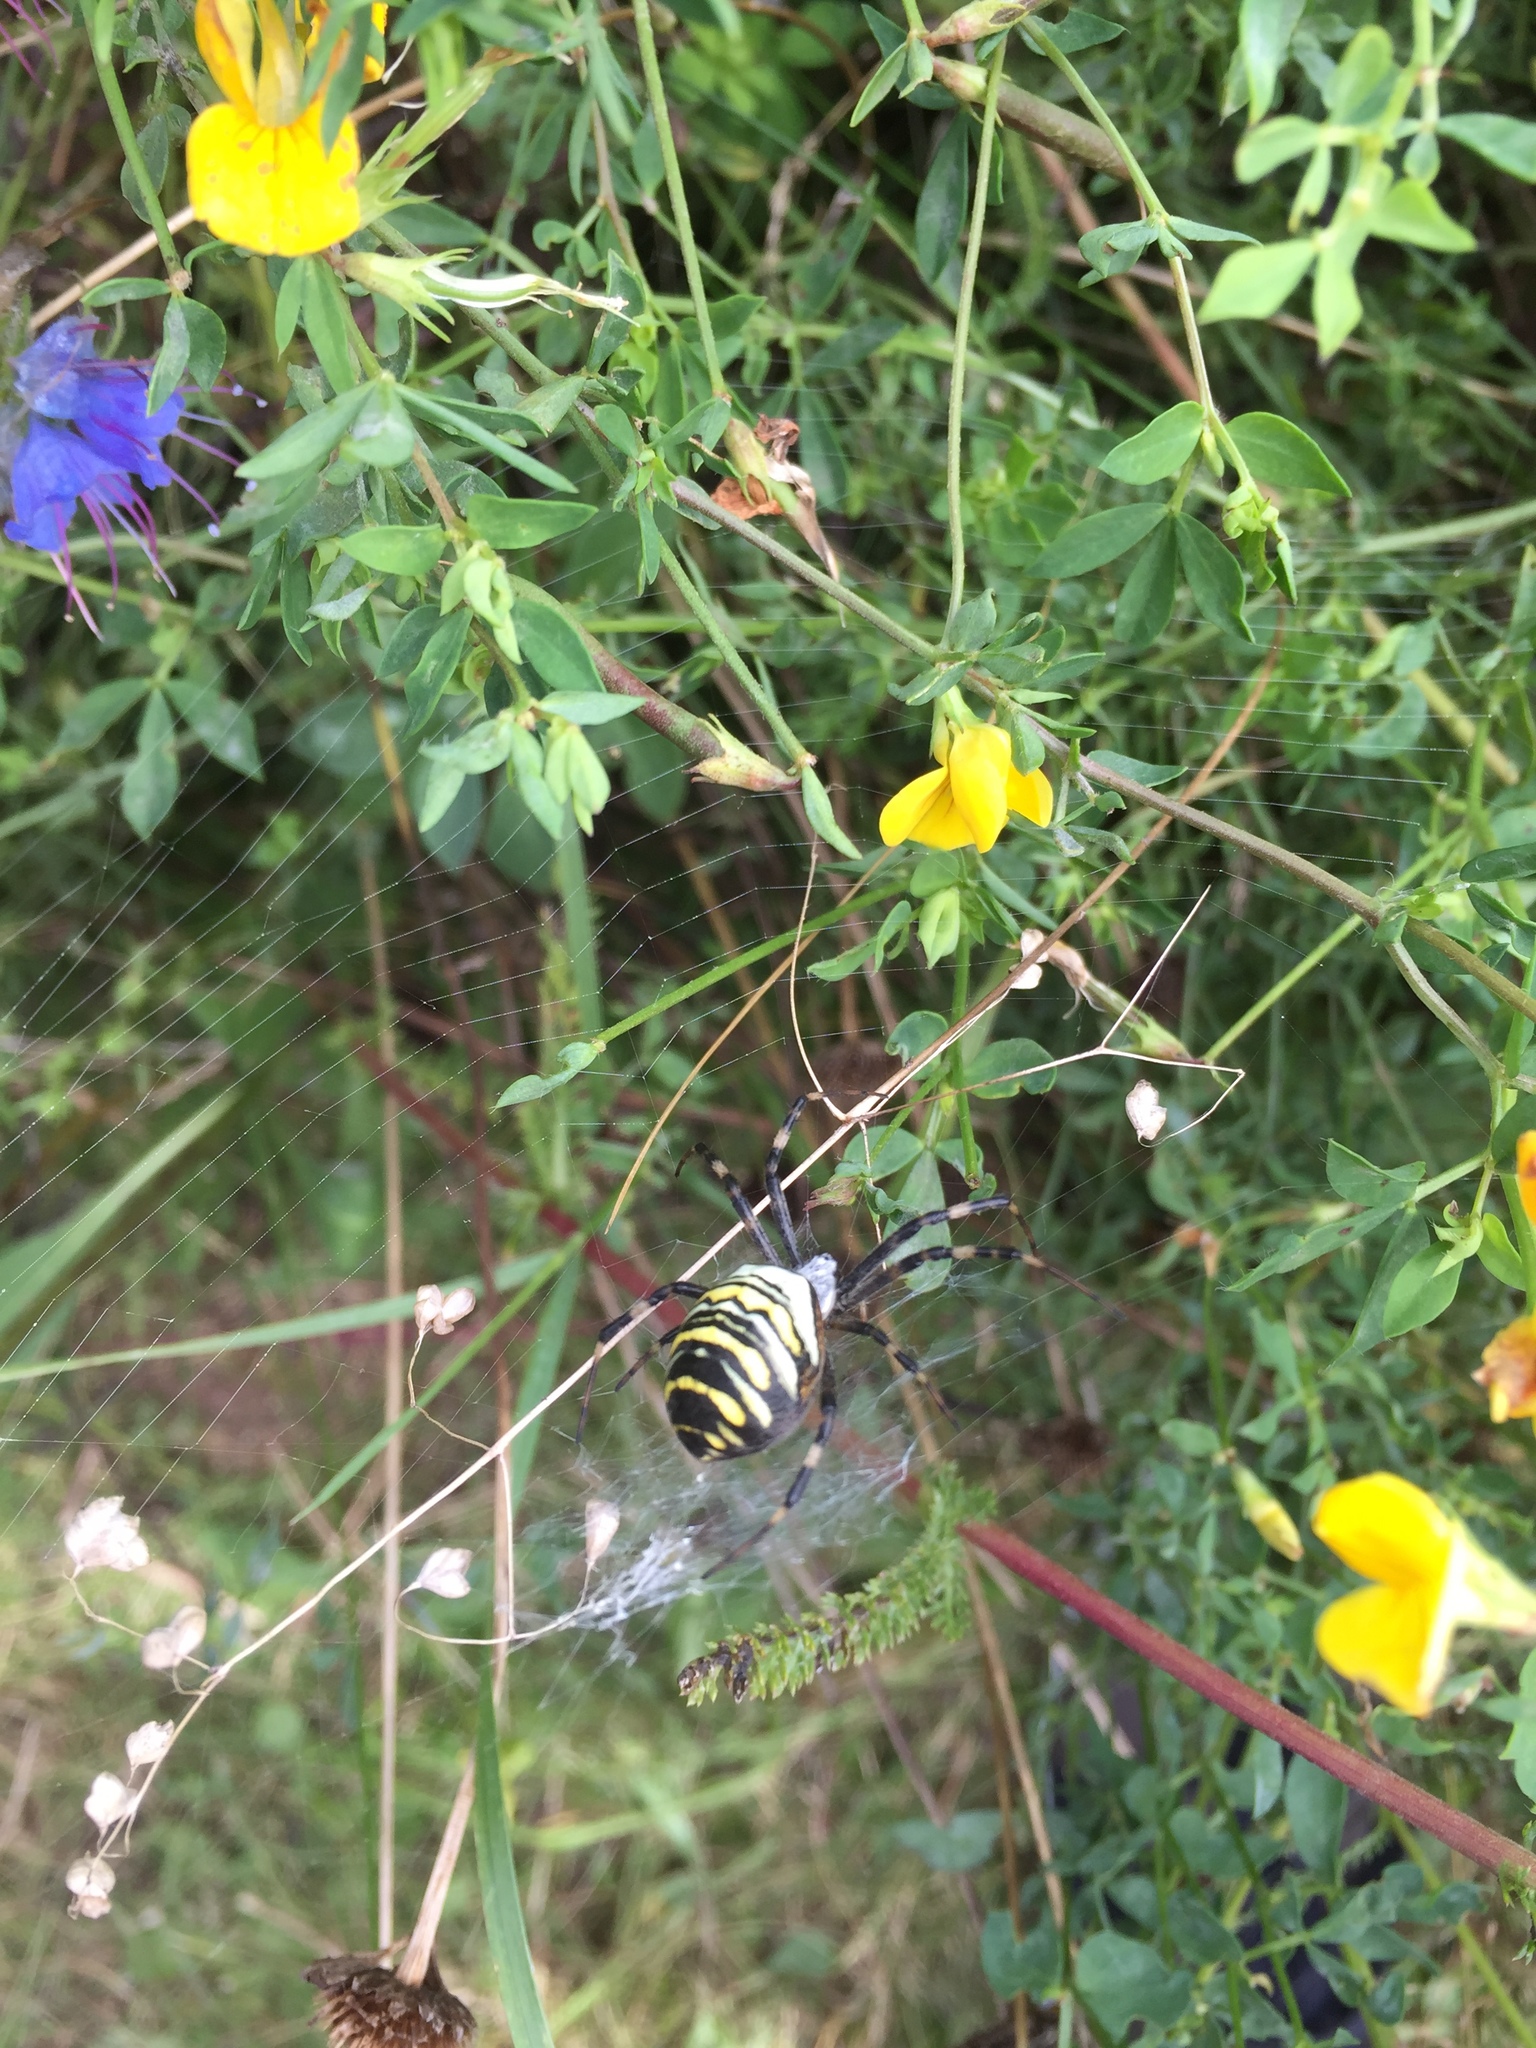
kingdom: Animalia
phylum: Arthropoda
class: Arachnida
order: Araneae
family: Araneidae
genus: Argiope
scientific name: Argiope bruennichi
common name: Wasp spider
